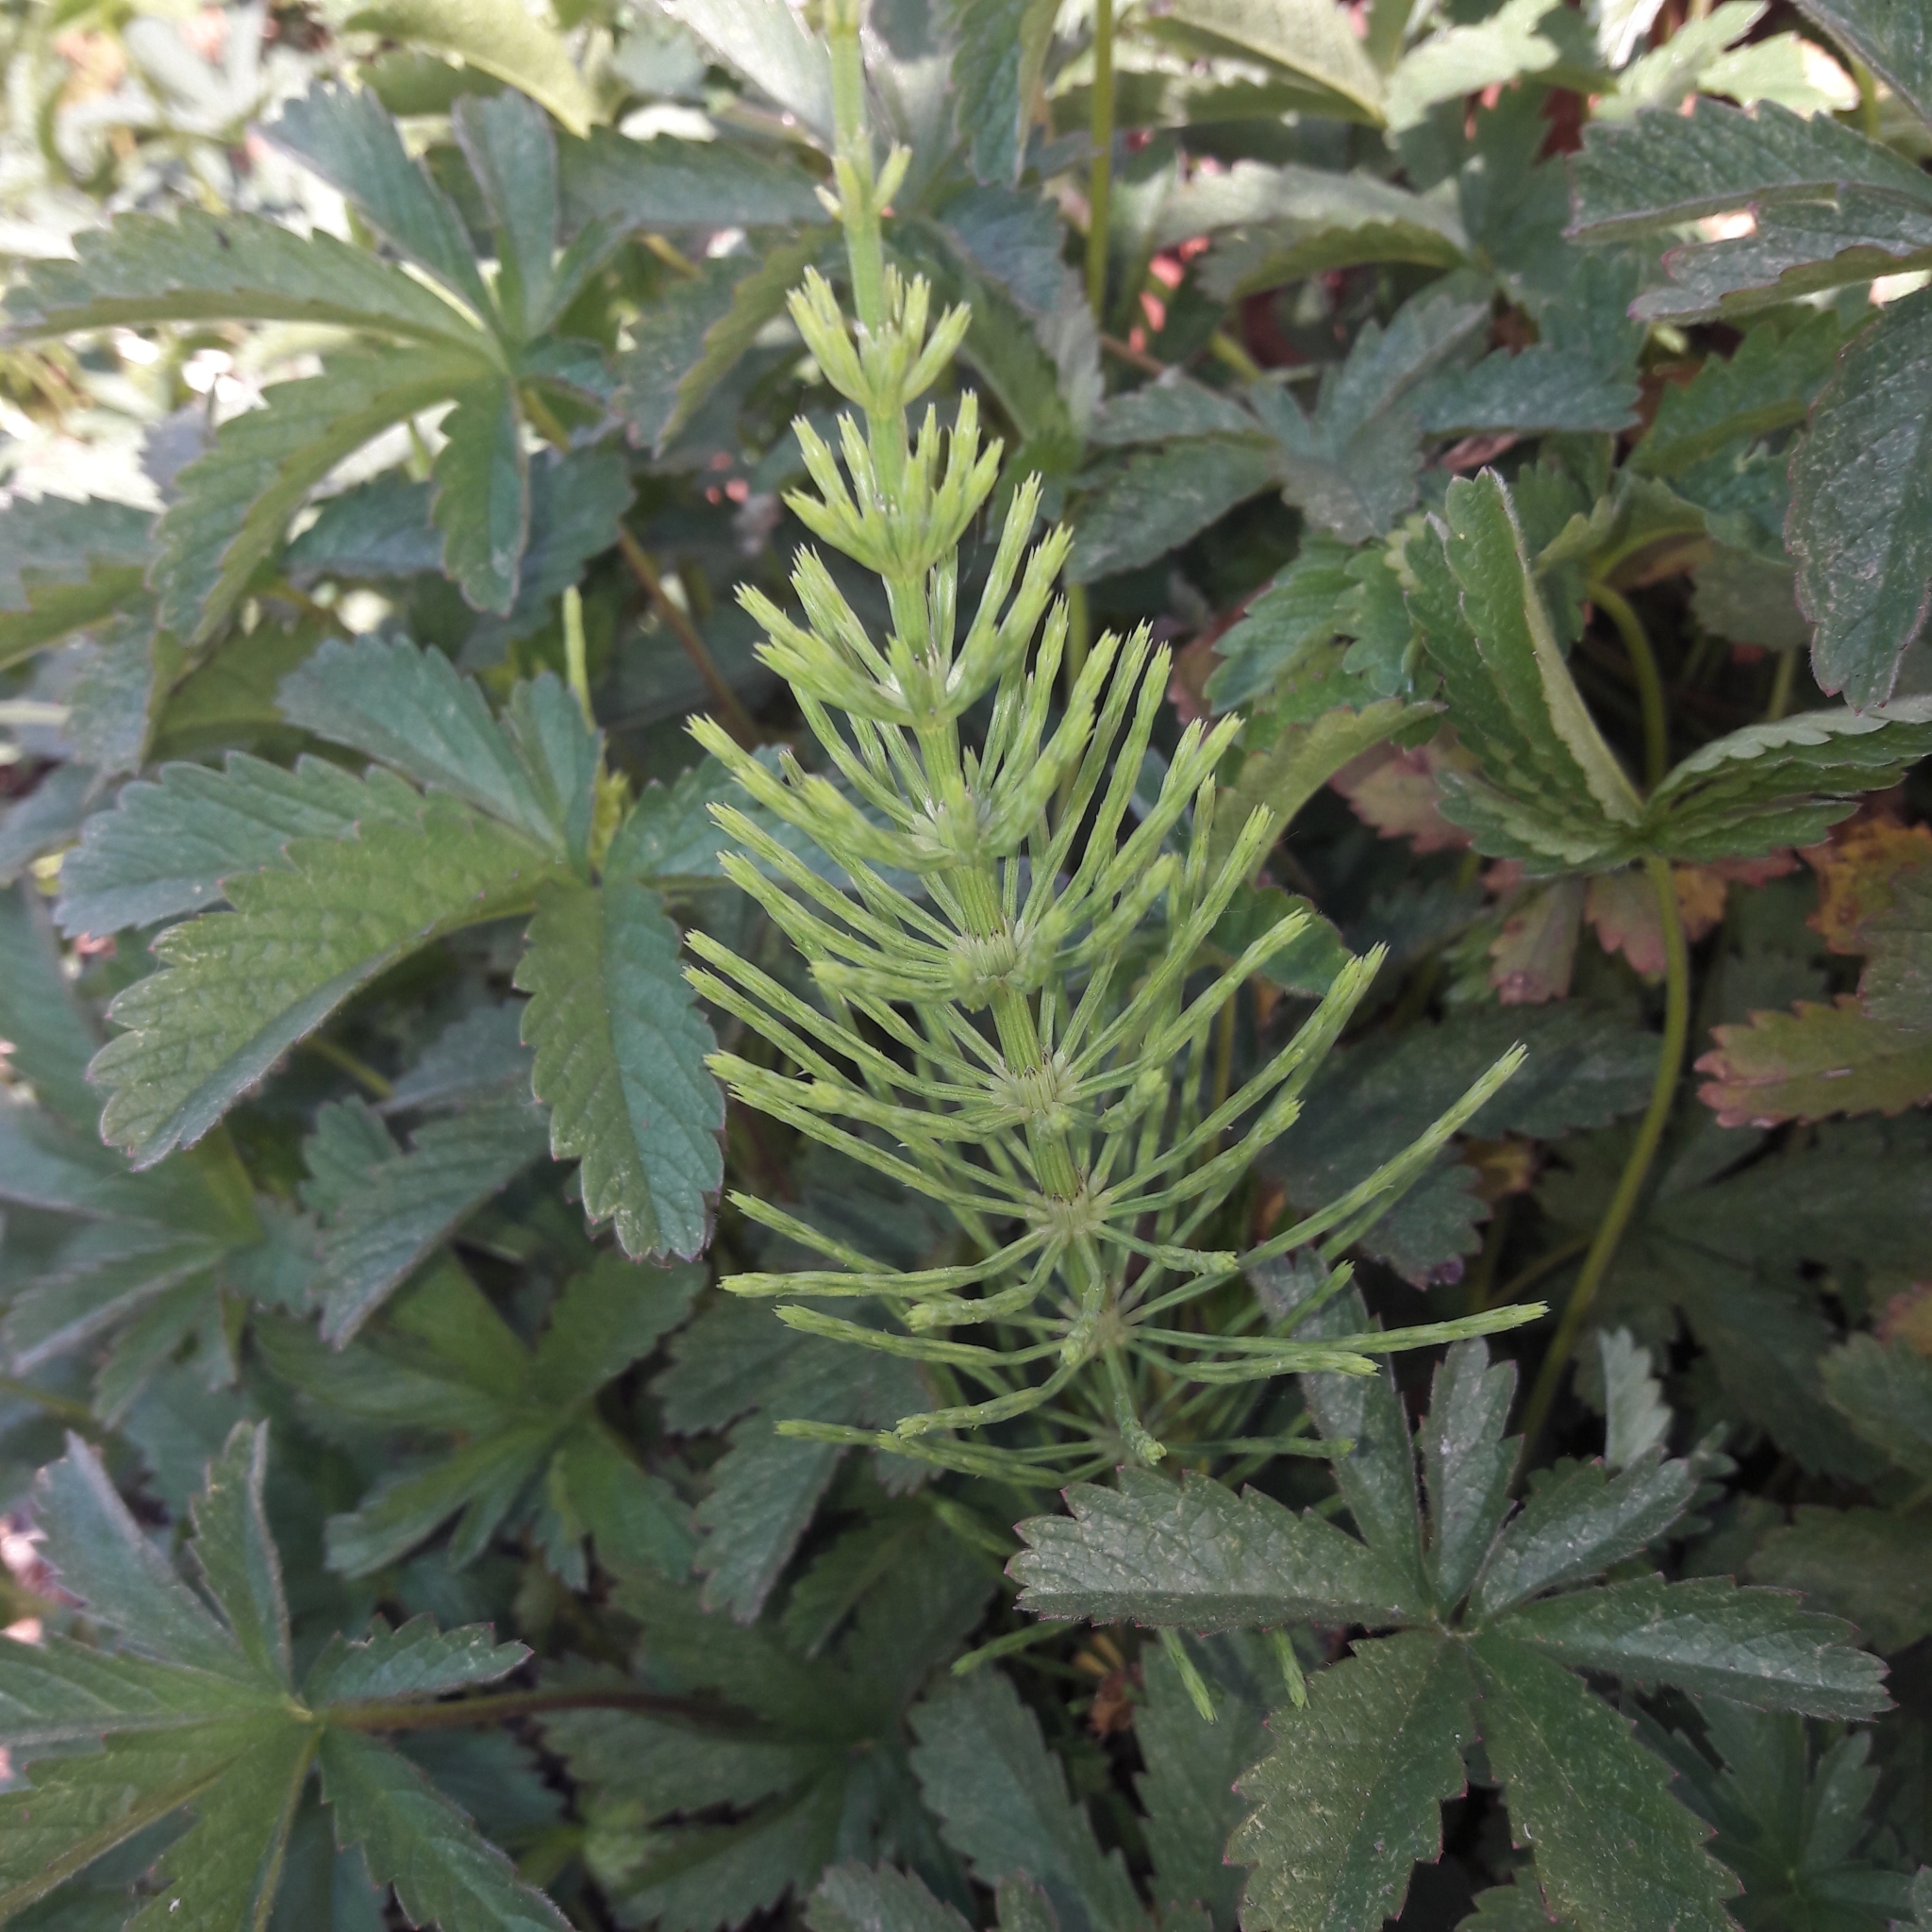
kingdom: Plantae
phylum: Tracheophyta
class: Polypodiopsida
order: Equisetales
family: Equisetaceae
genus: Equisetum
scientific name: Equisetum arvense
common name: Field horsetail
